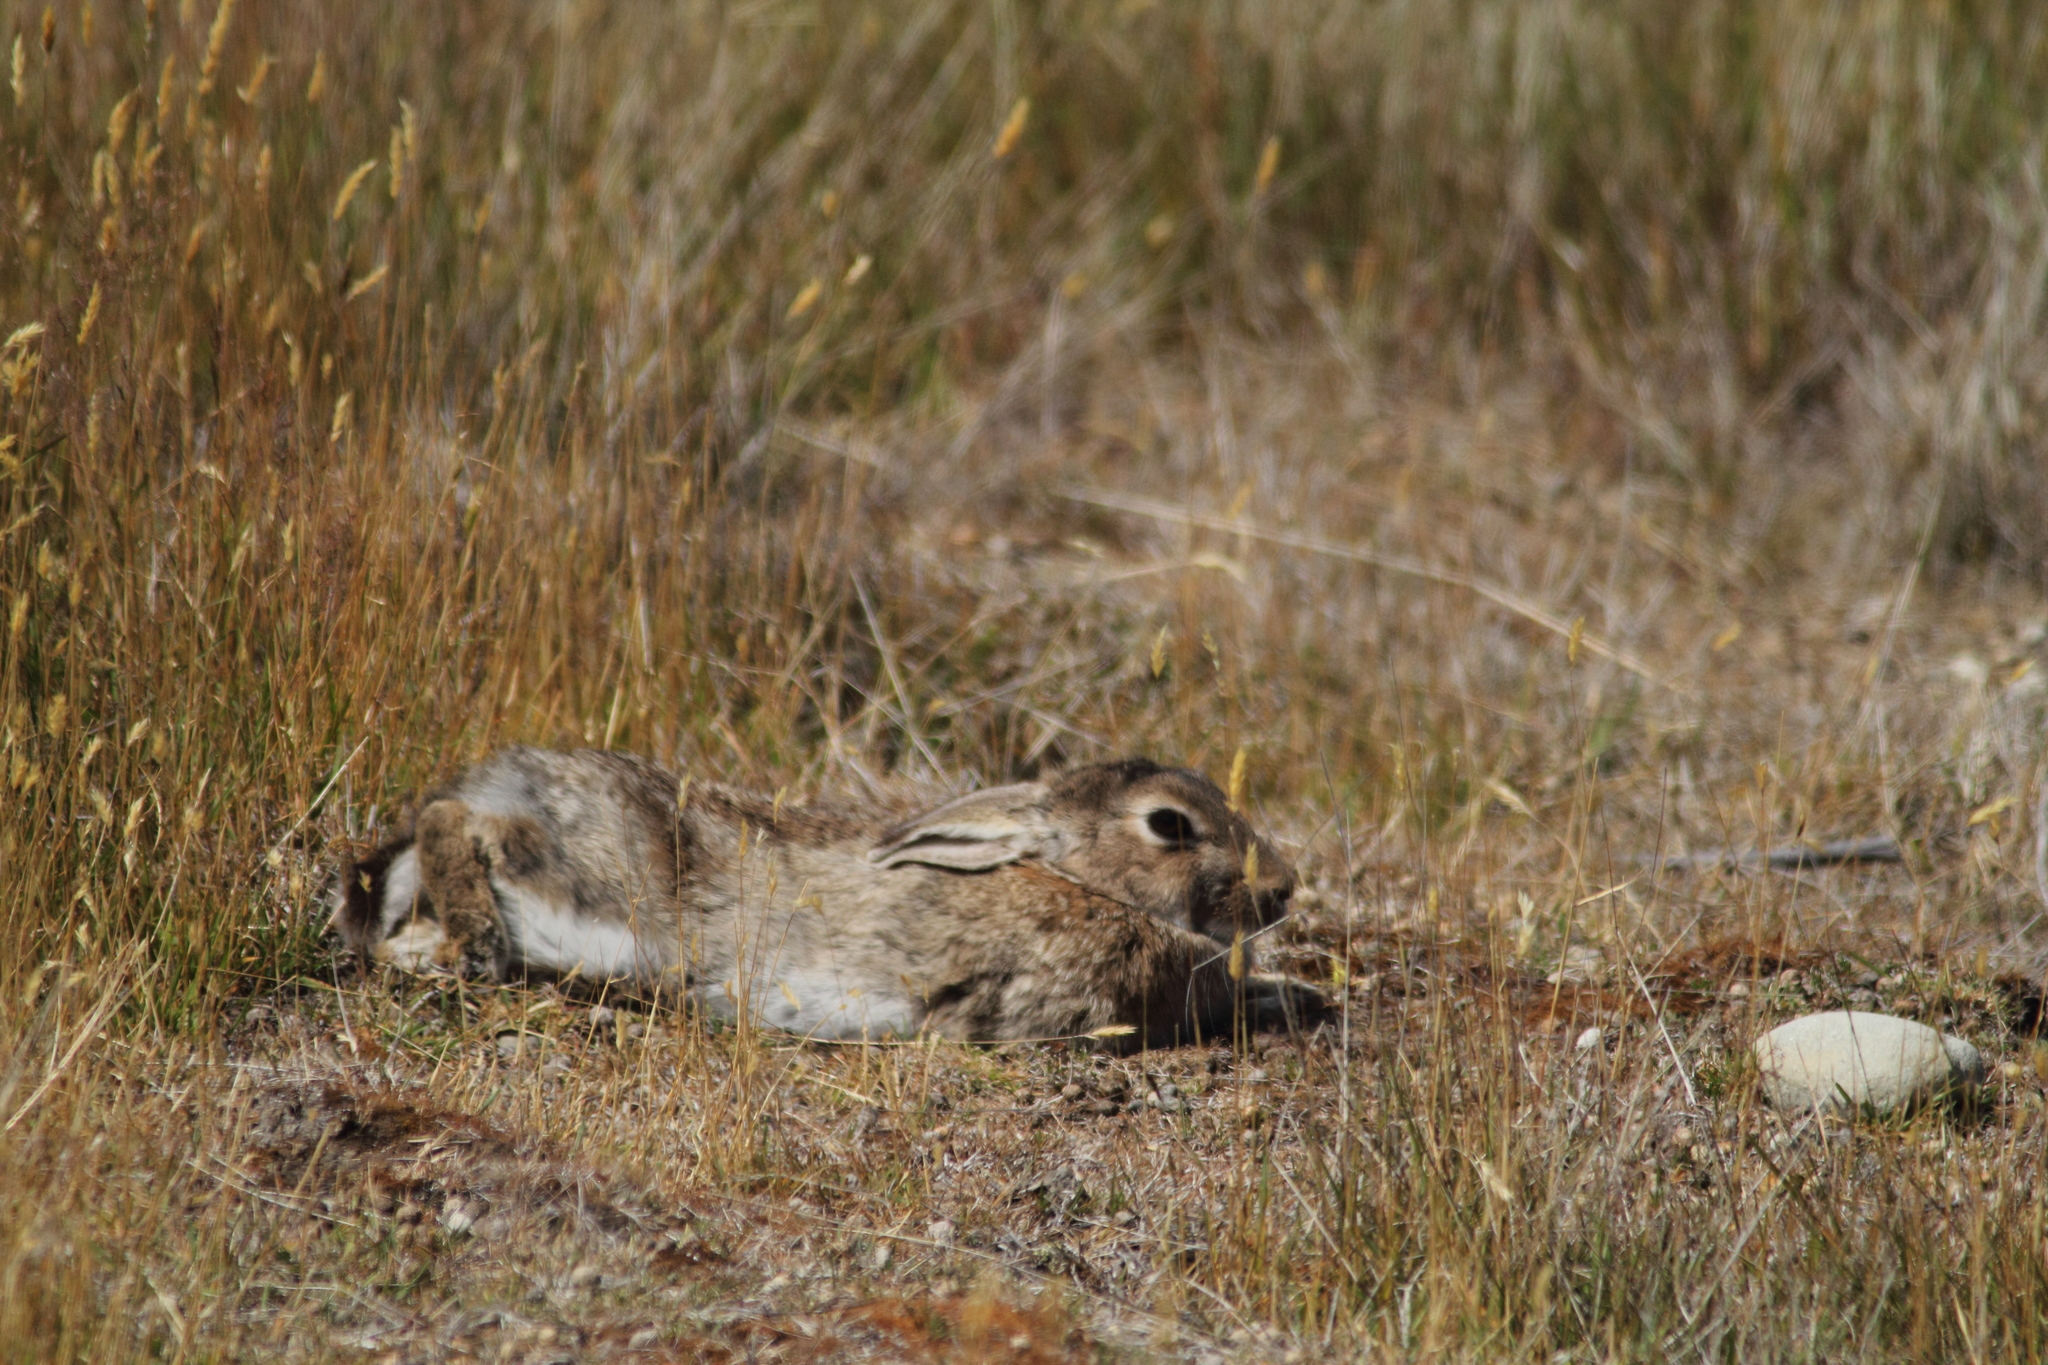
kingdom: Animalia
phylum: Chordata
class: Mammalia
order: Lagomorpha
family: Leporidae
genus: Oryctolagus
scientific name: Oryctolagus cuniculus
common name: European rabbit
